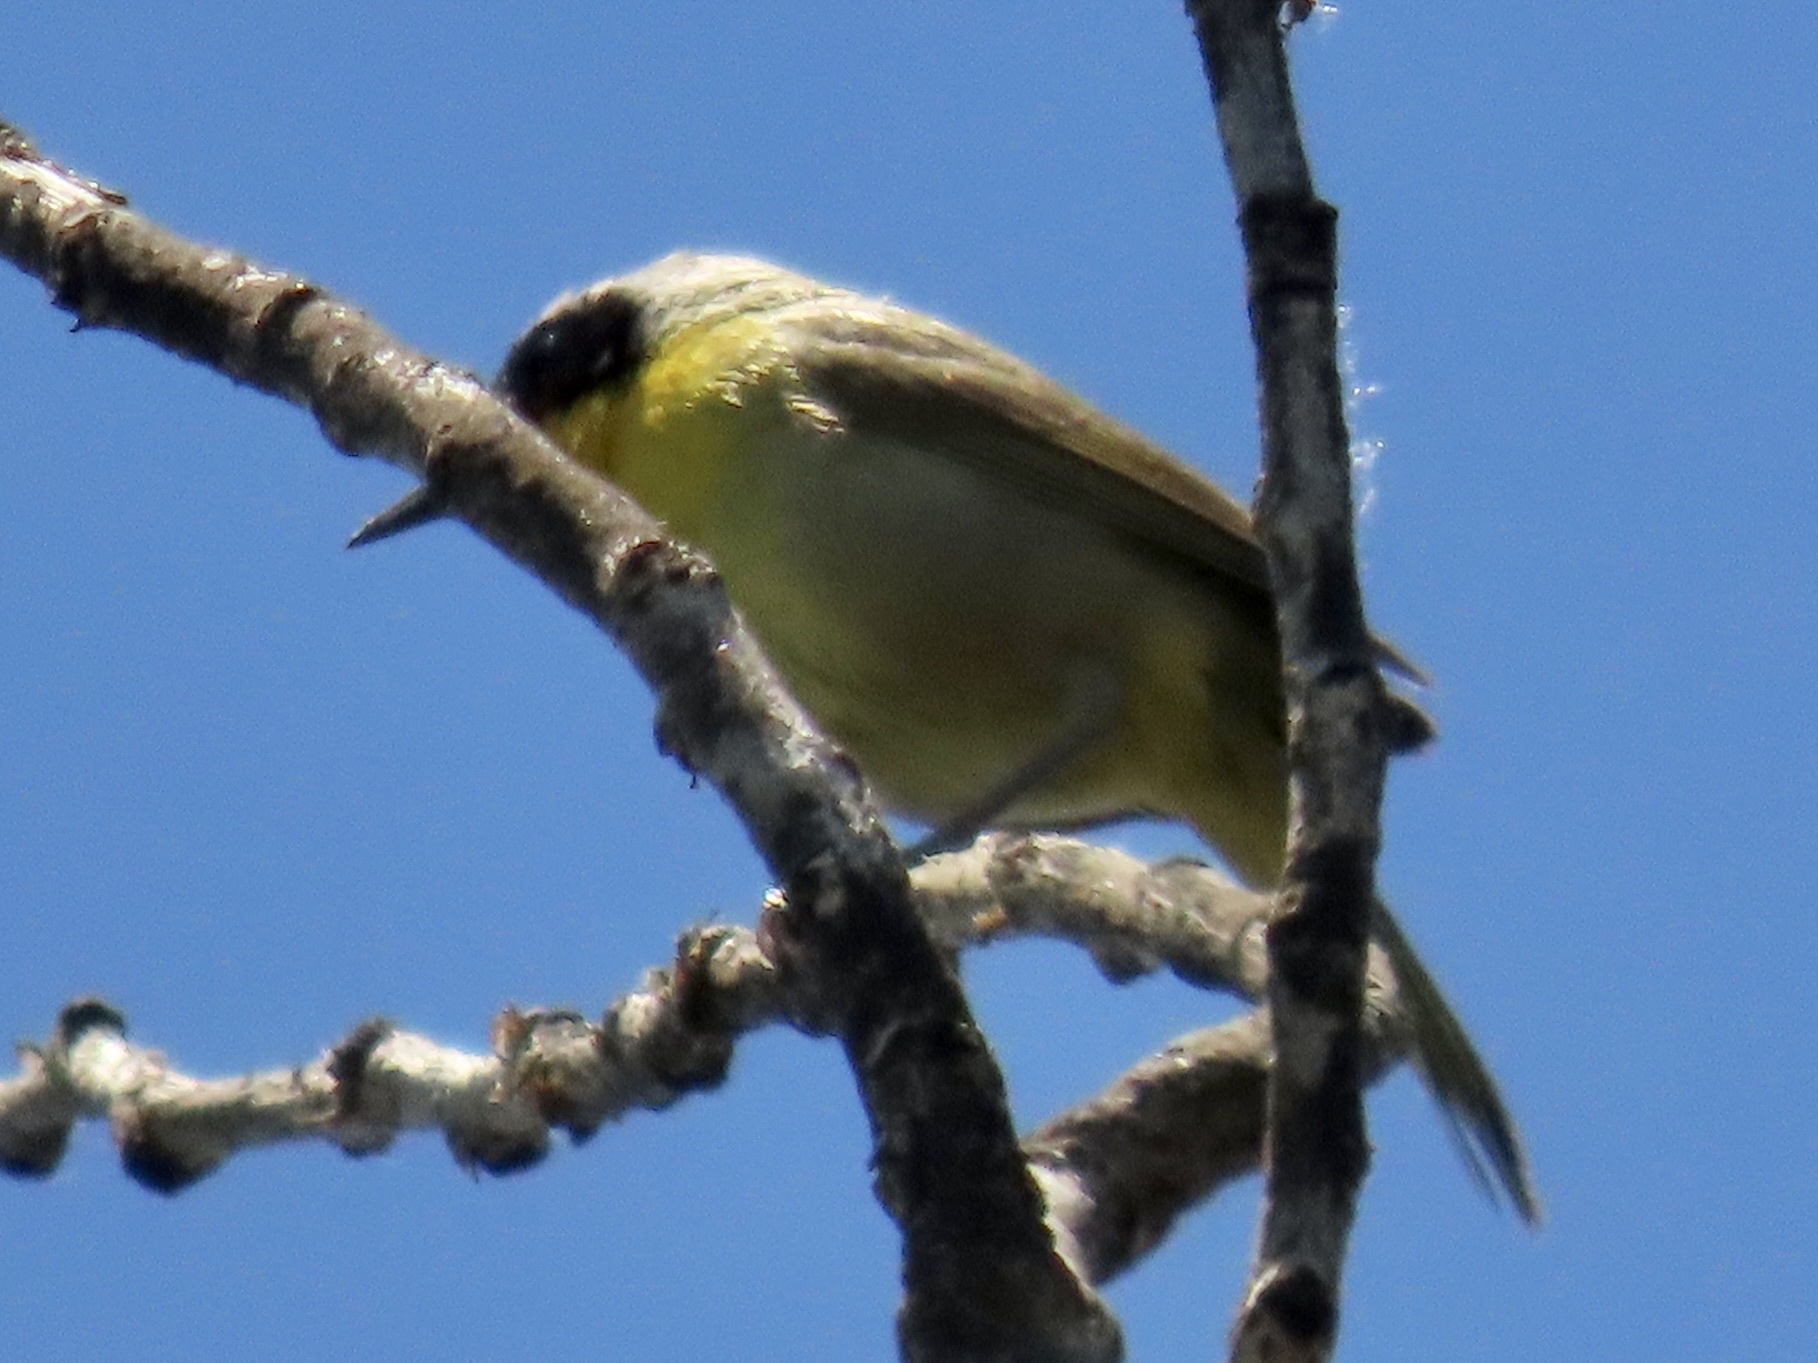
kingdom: Animalia
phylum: Chordata
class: Aves
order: Passeriformes
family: Parulidae
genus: Geothlypis
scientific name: Geothlypis trichas
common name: Common yellowthroat
